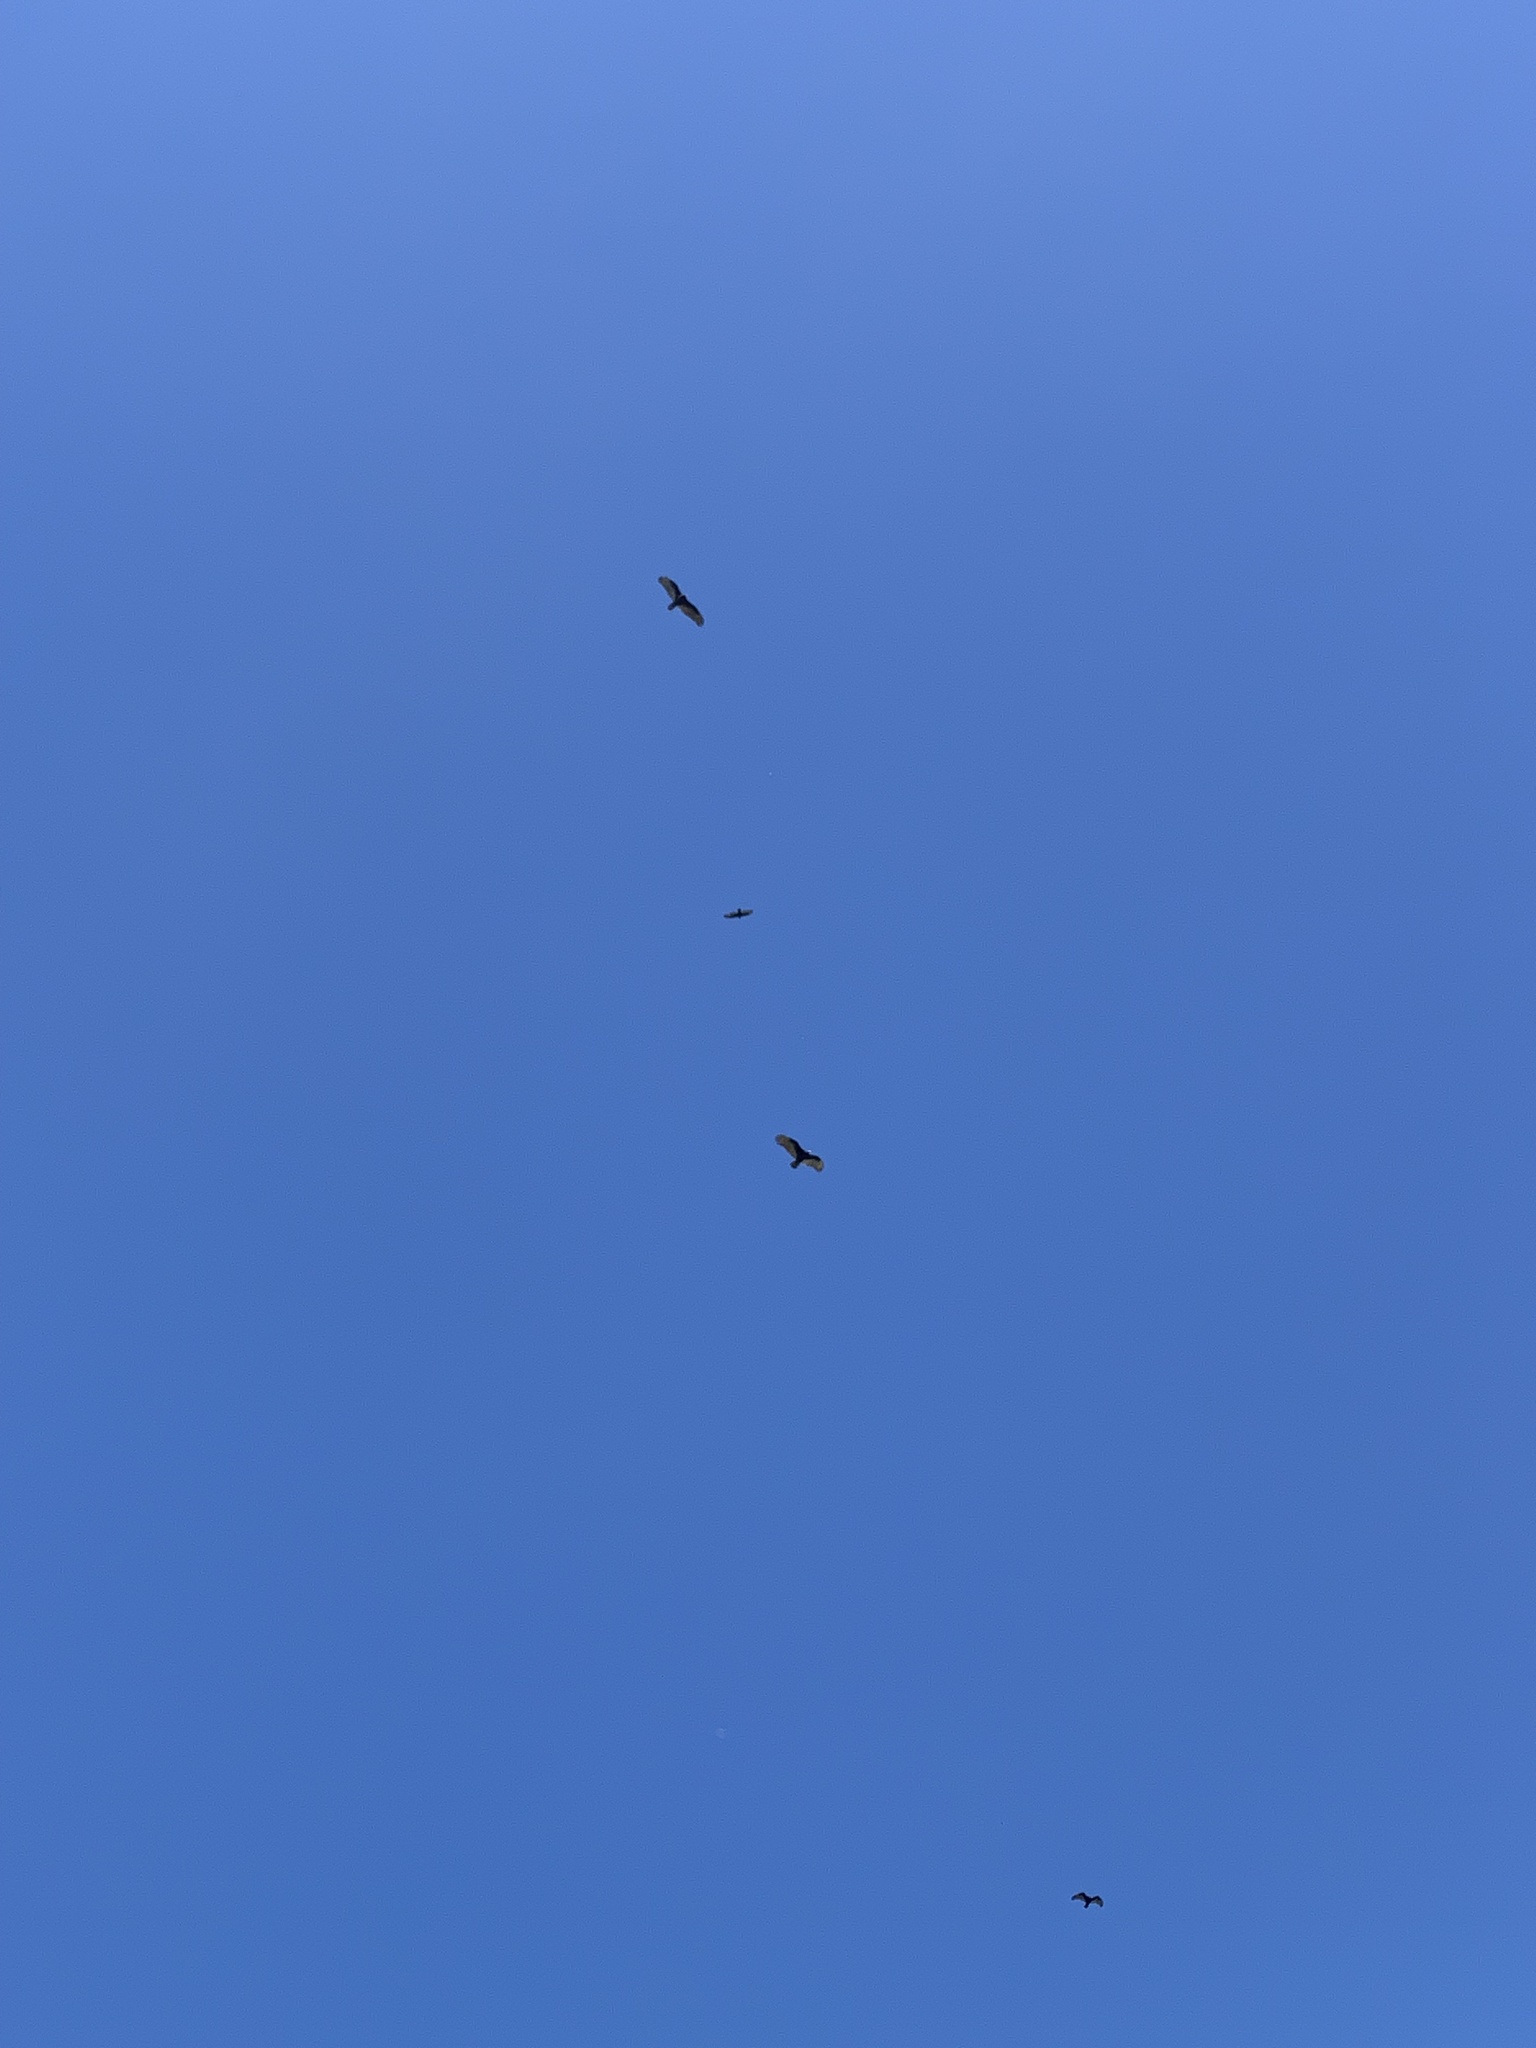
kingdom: Animalia
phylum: Chordata
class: Aves
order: Accipitriformes
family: Cathartidae
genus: Cathartes
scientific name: Cathartes aura
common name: Turkey vulture
